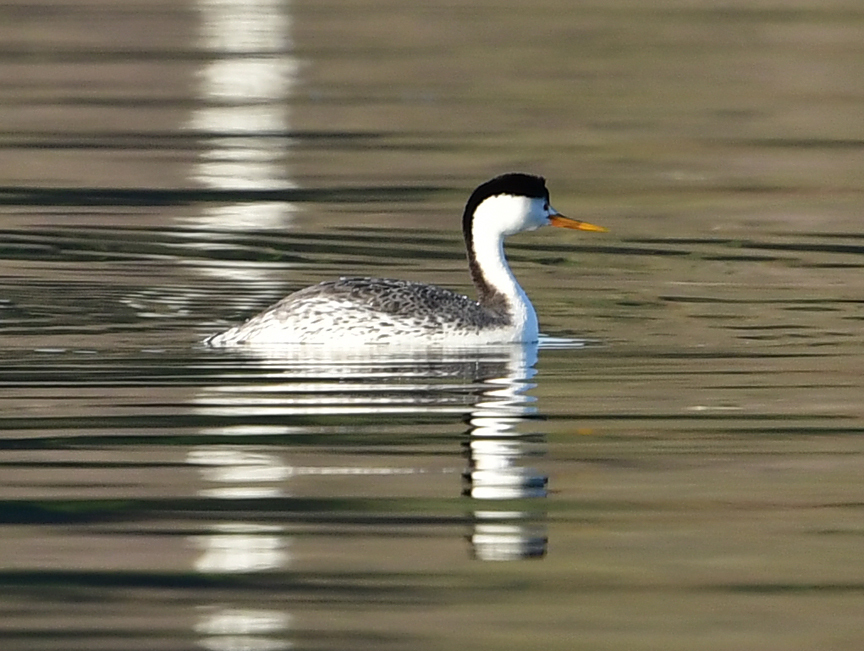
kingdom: Animalia
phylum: Chordata
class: Aves
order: Podicipediformes
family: Podicipedidae
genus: Aechmophorus
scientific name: Aechmophorus clarkii
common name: Clark's grebe
